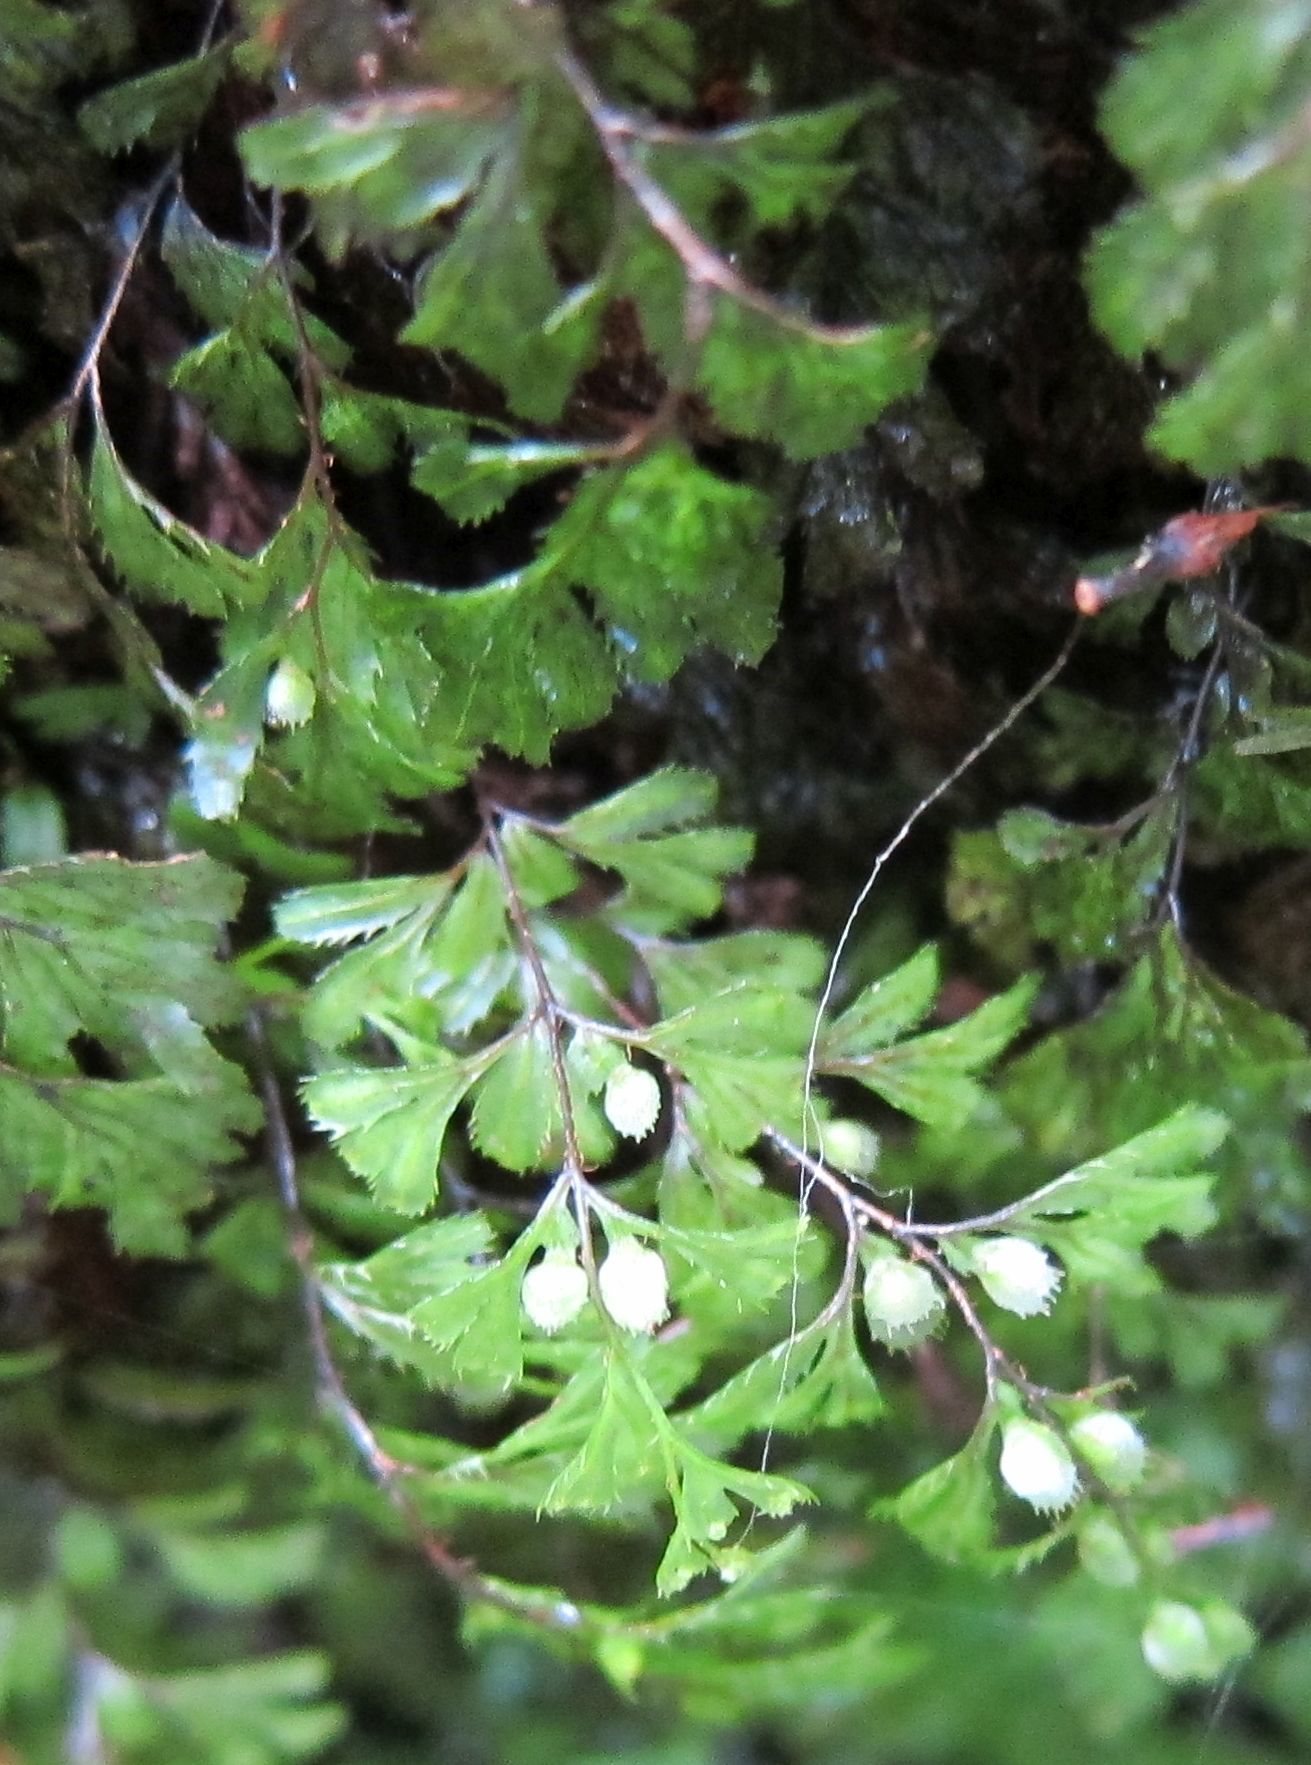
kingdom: Plantae
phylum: Tracheophyta
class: Polypodiopsida
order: Hymenophyllales
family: Hymenophyllaceae
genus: Hymenophyllum
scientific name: Hymenophyllum revolutum
